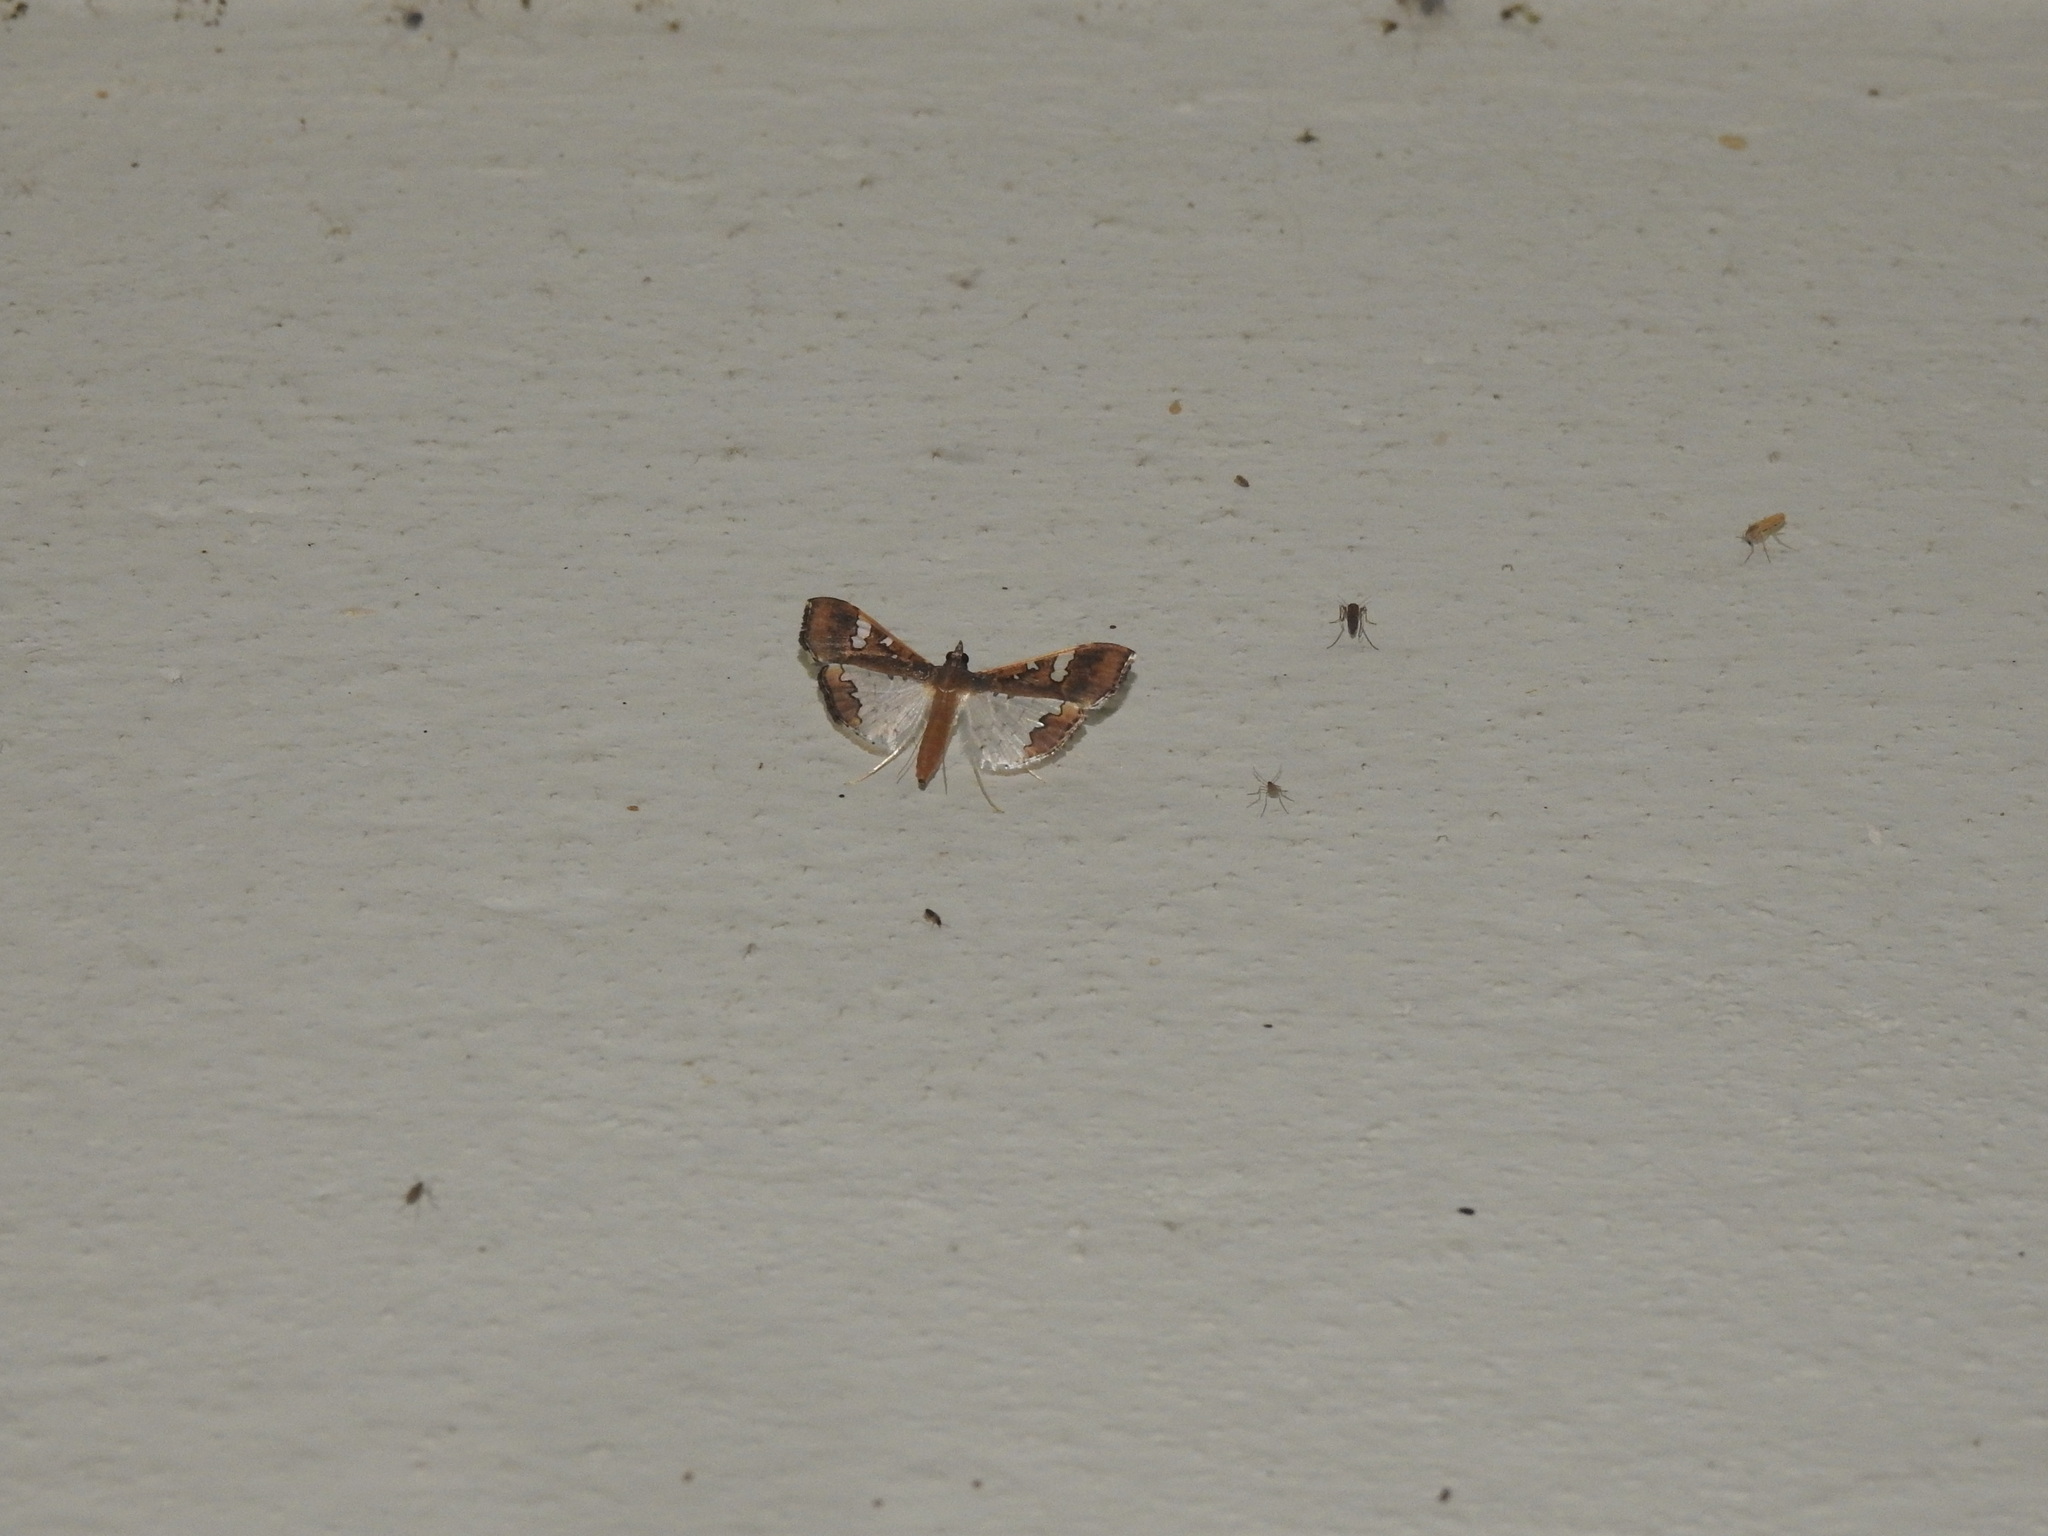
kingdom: Animalia
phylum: Arthropoda
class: Insecta
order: Lepidoptera
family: Crambidae
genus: Maruca
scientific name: Maruca vitrata
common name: Maruca pod borer
